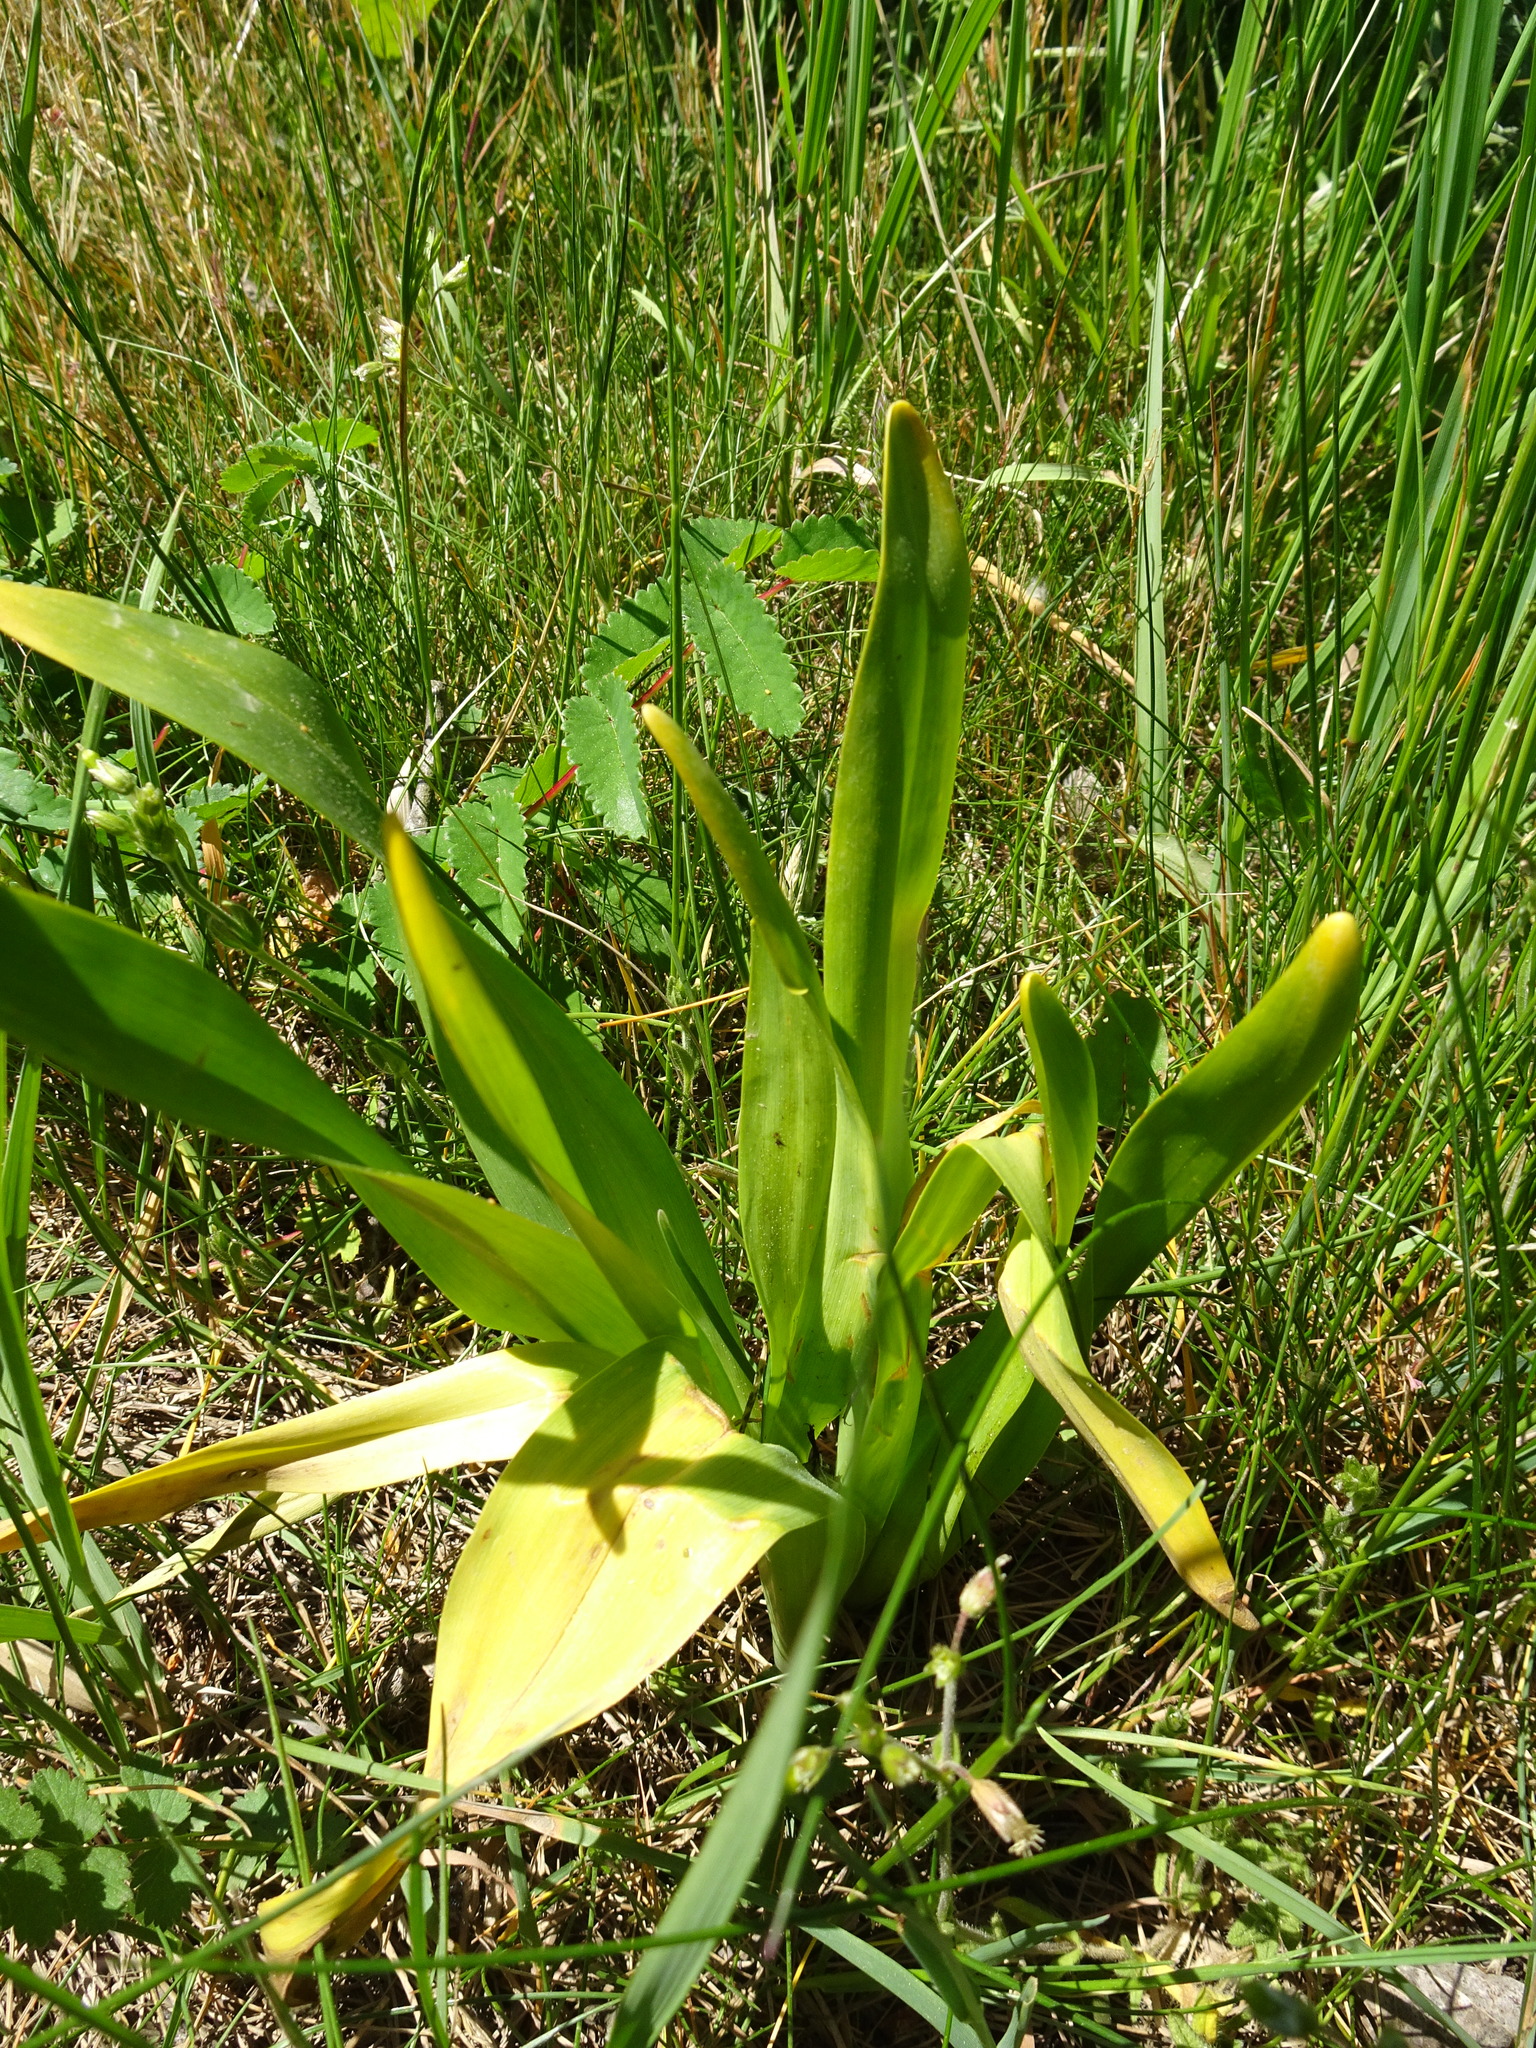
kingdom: Plantae
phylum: Tracheophyta
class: Liliopsida
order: Liliales
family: Colchicaceae
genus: Colchicum
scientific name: Colchicum autumnale
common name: Autumn crocus
